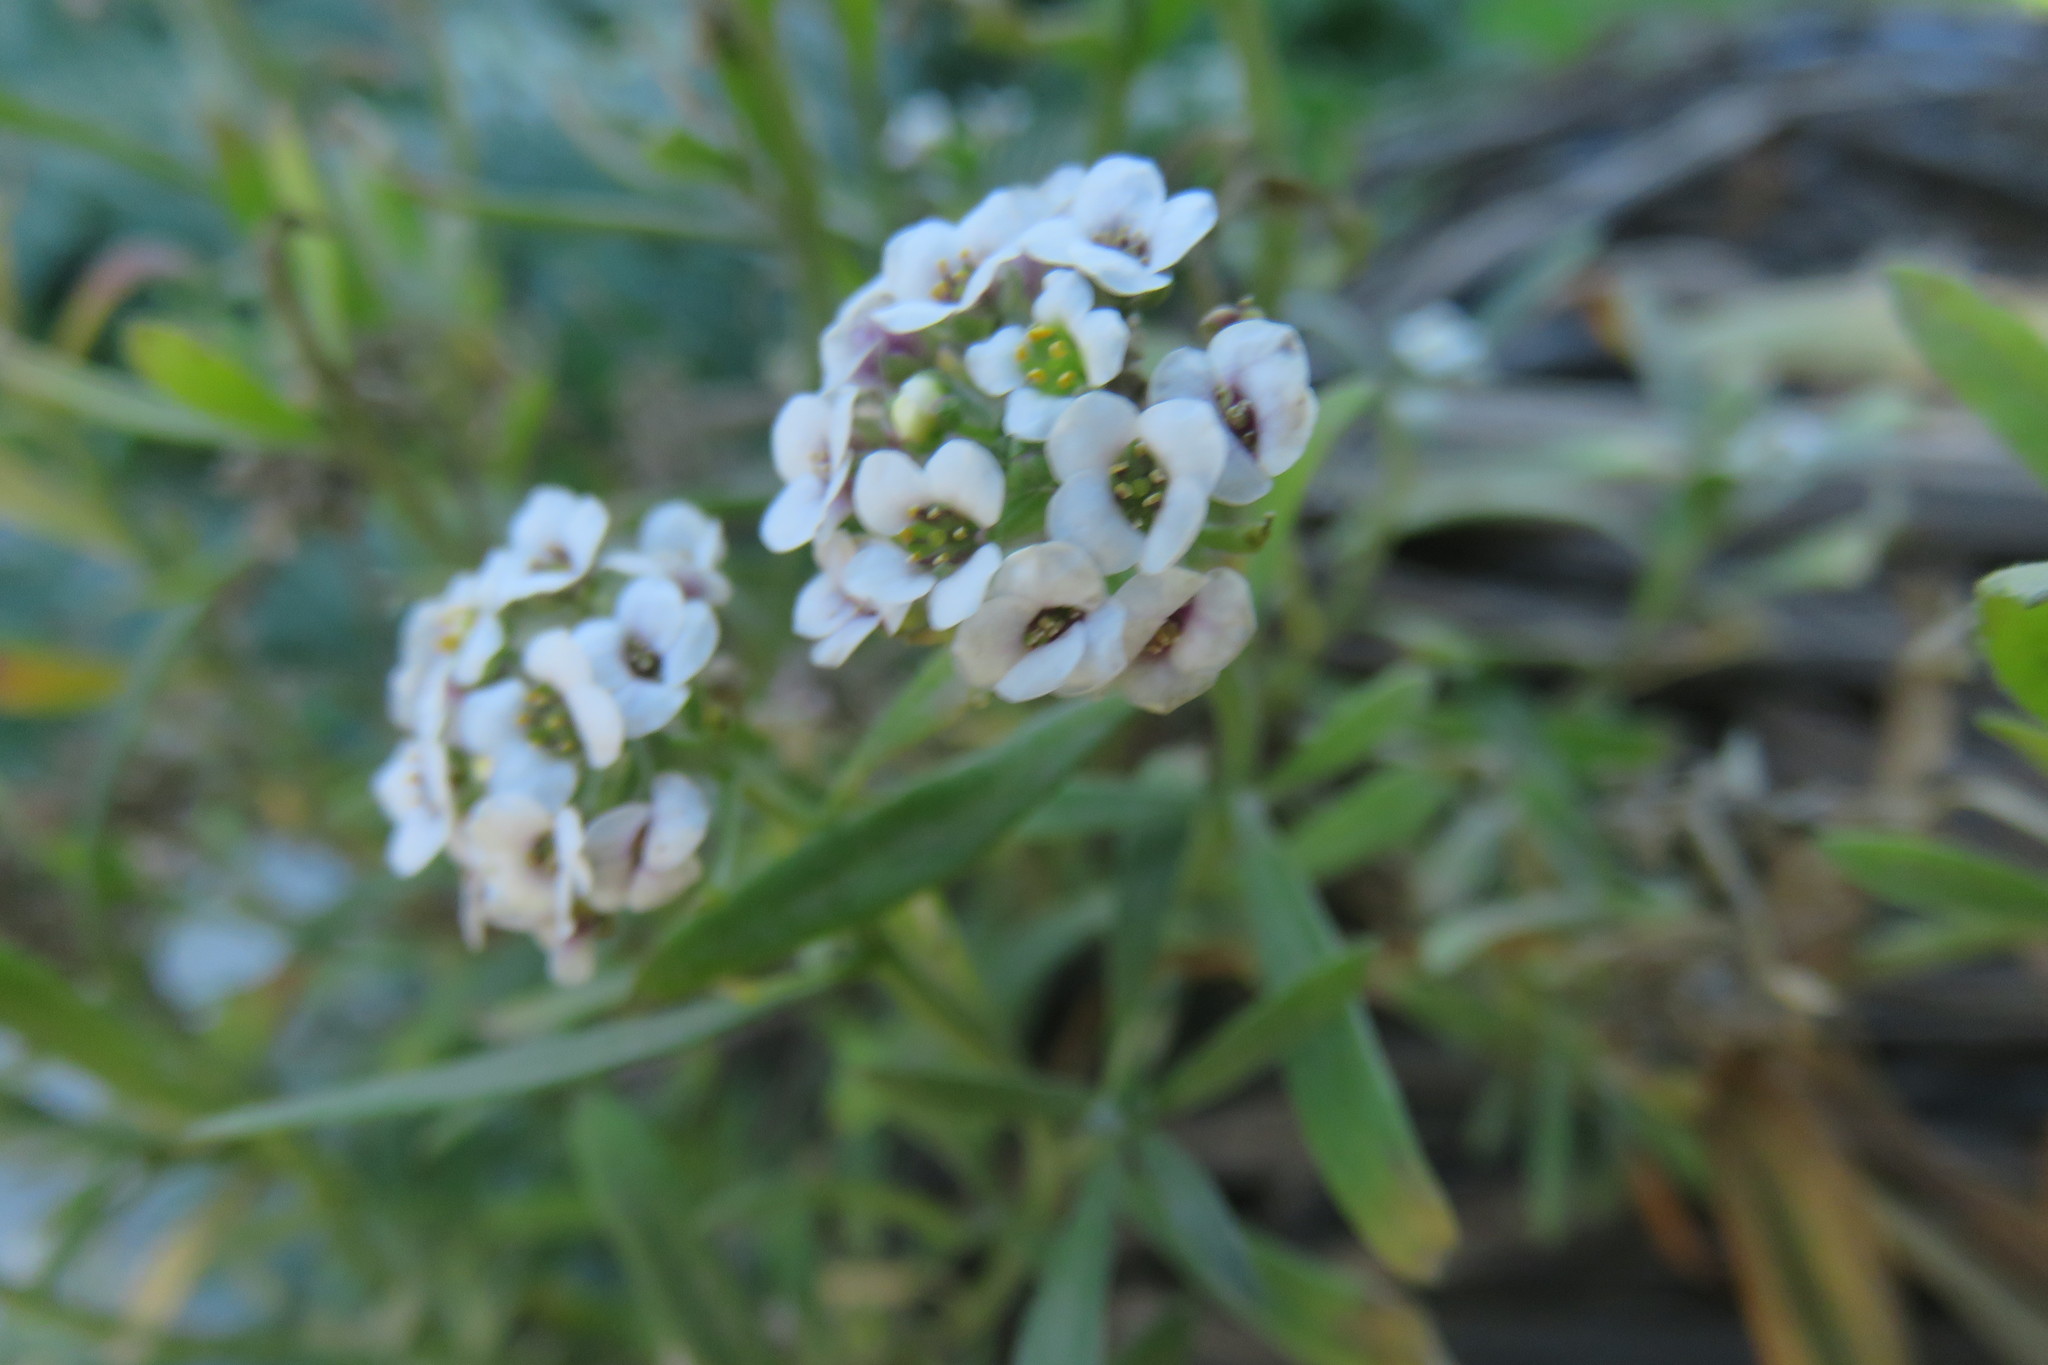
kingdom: Plantae
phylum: Tracheophyta
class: Magnoliopsida
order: Brassicales
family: Brassicaceae
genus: Lobularia
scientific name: Lobularia maritima
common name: Sweet alison
